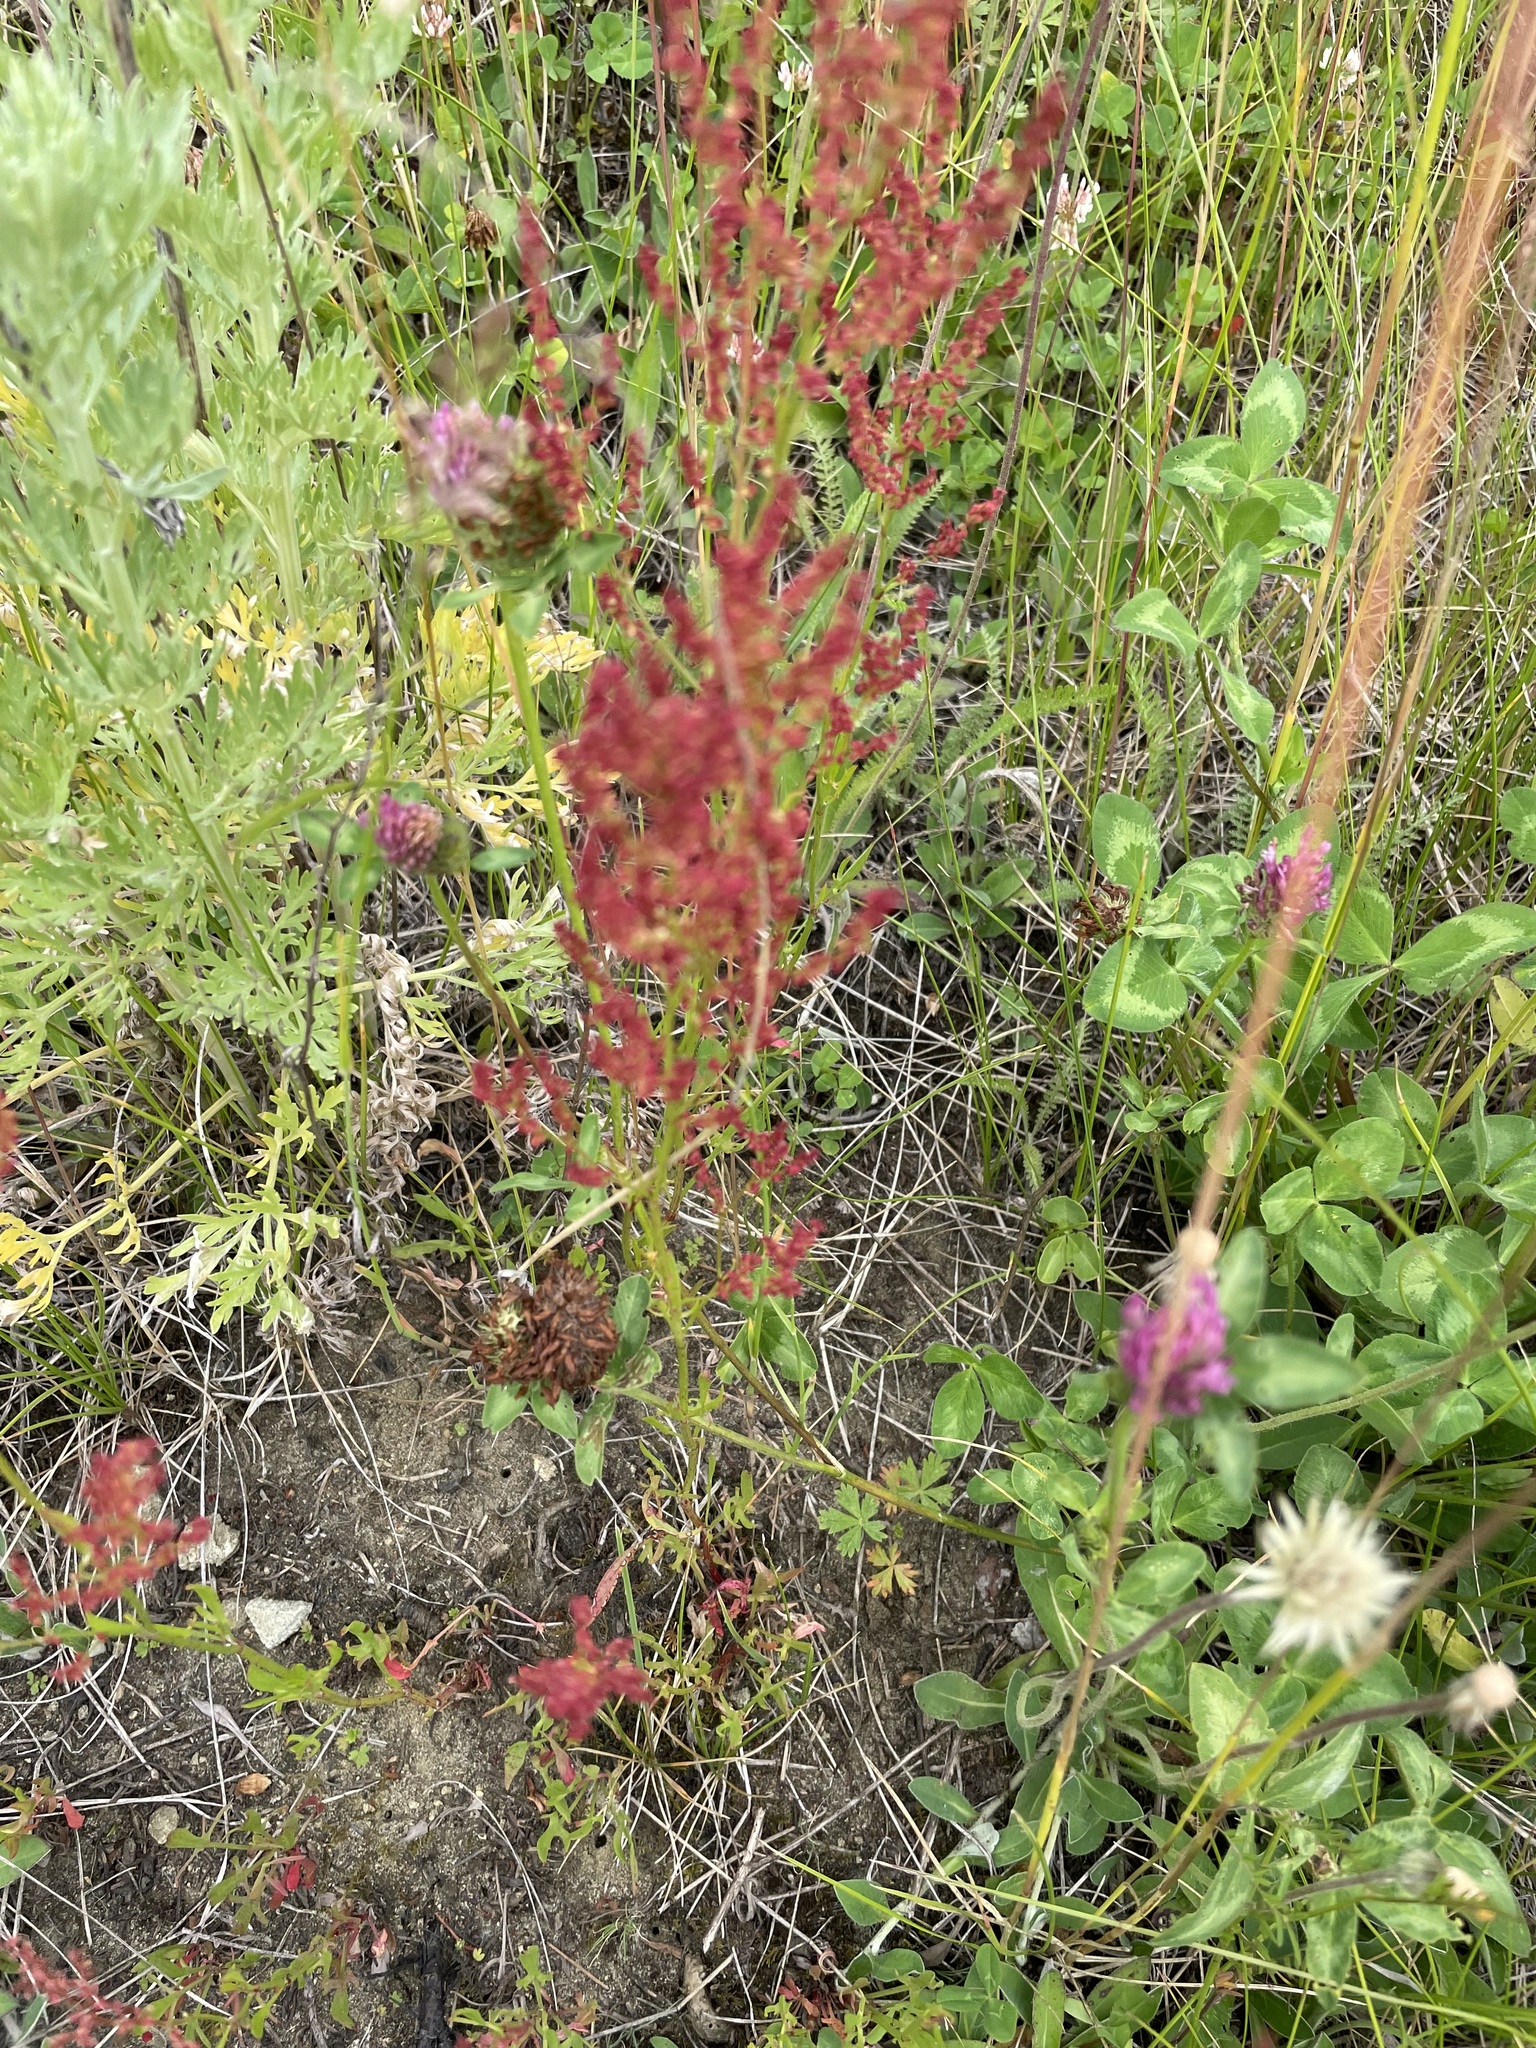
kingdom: Plantae
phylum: Tracheophyta
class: Magnoliopsida
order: Caryophyllales
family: Polygonaceae
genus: Rumex
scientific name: Rumex acetosella
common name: Common sheep sorrel
